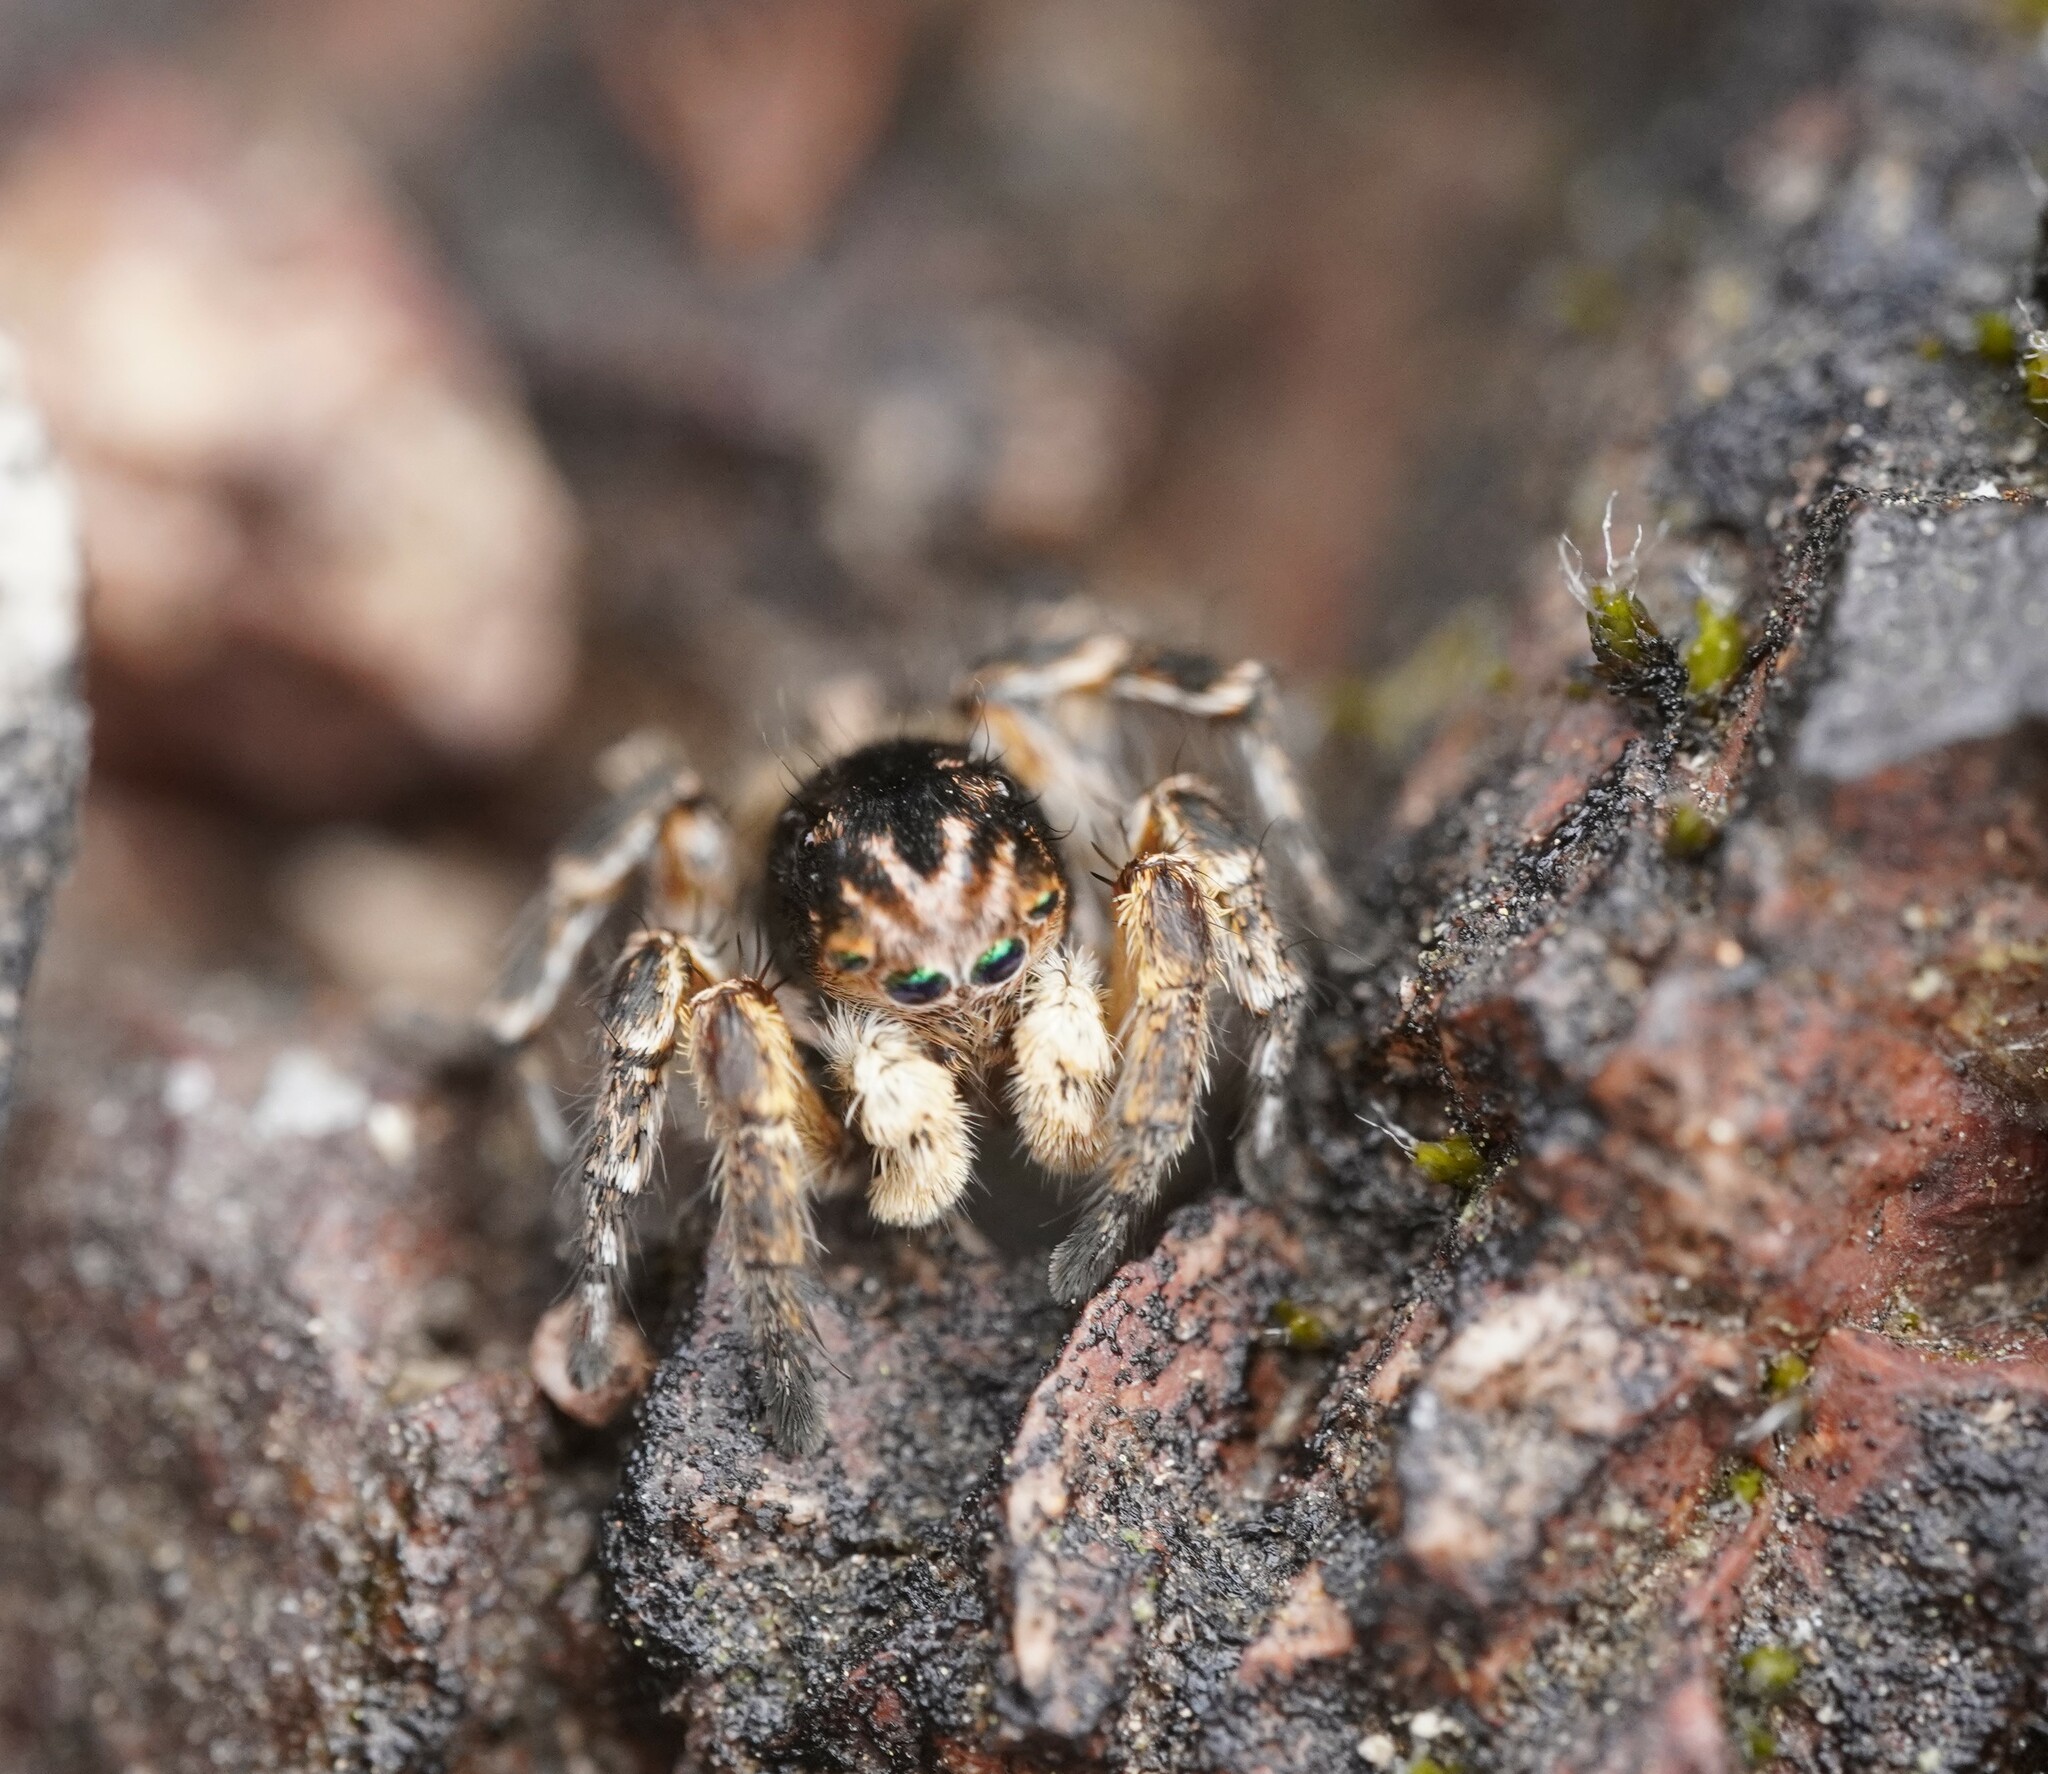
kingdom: Animalia
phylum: Arthropoda
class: Arachnida
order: Araneae
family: Salticidae
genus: Aelurillus
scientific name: Aelurillus v-insignitus
